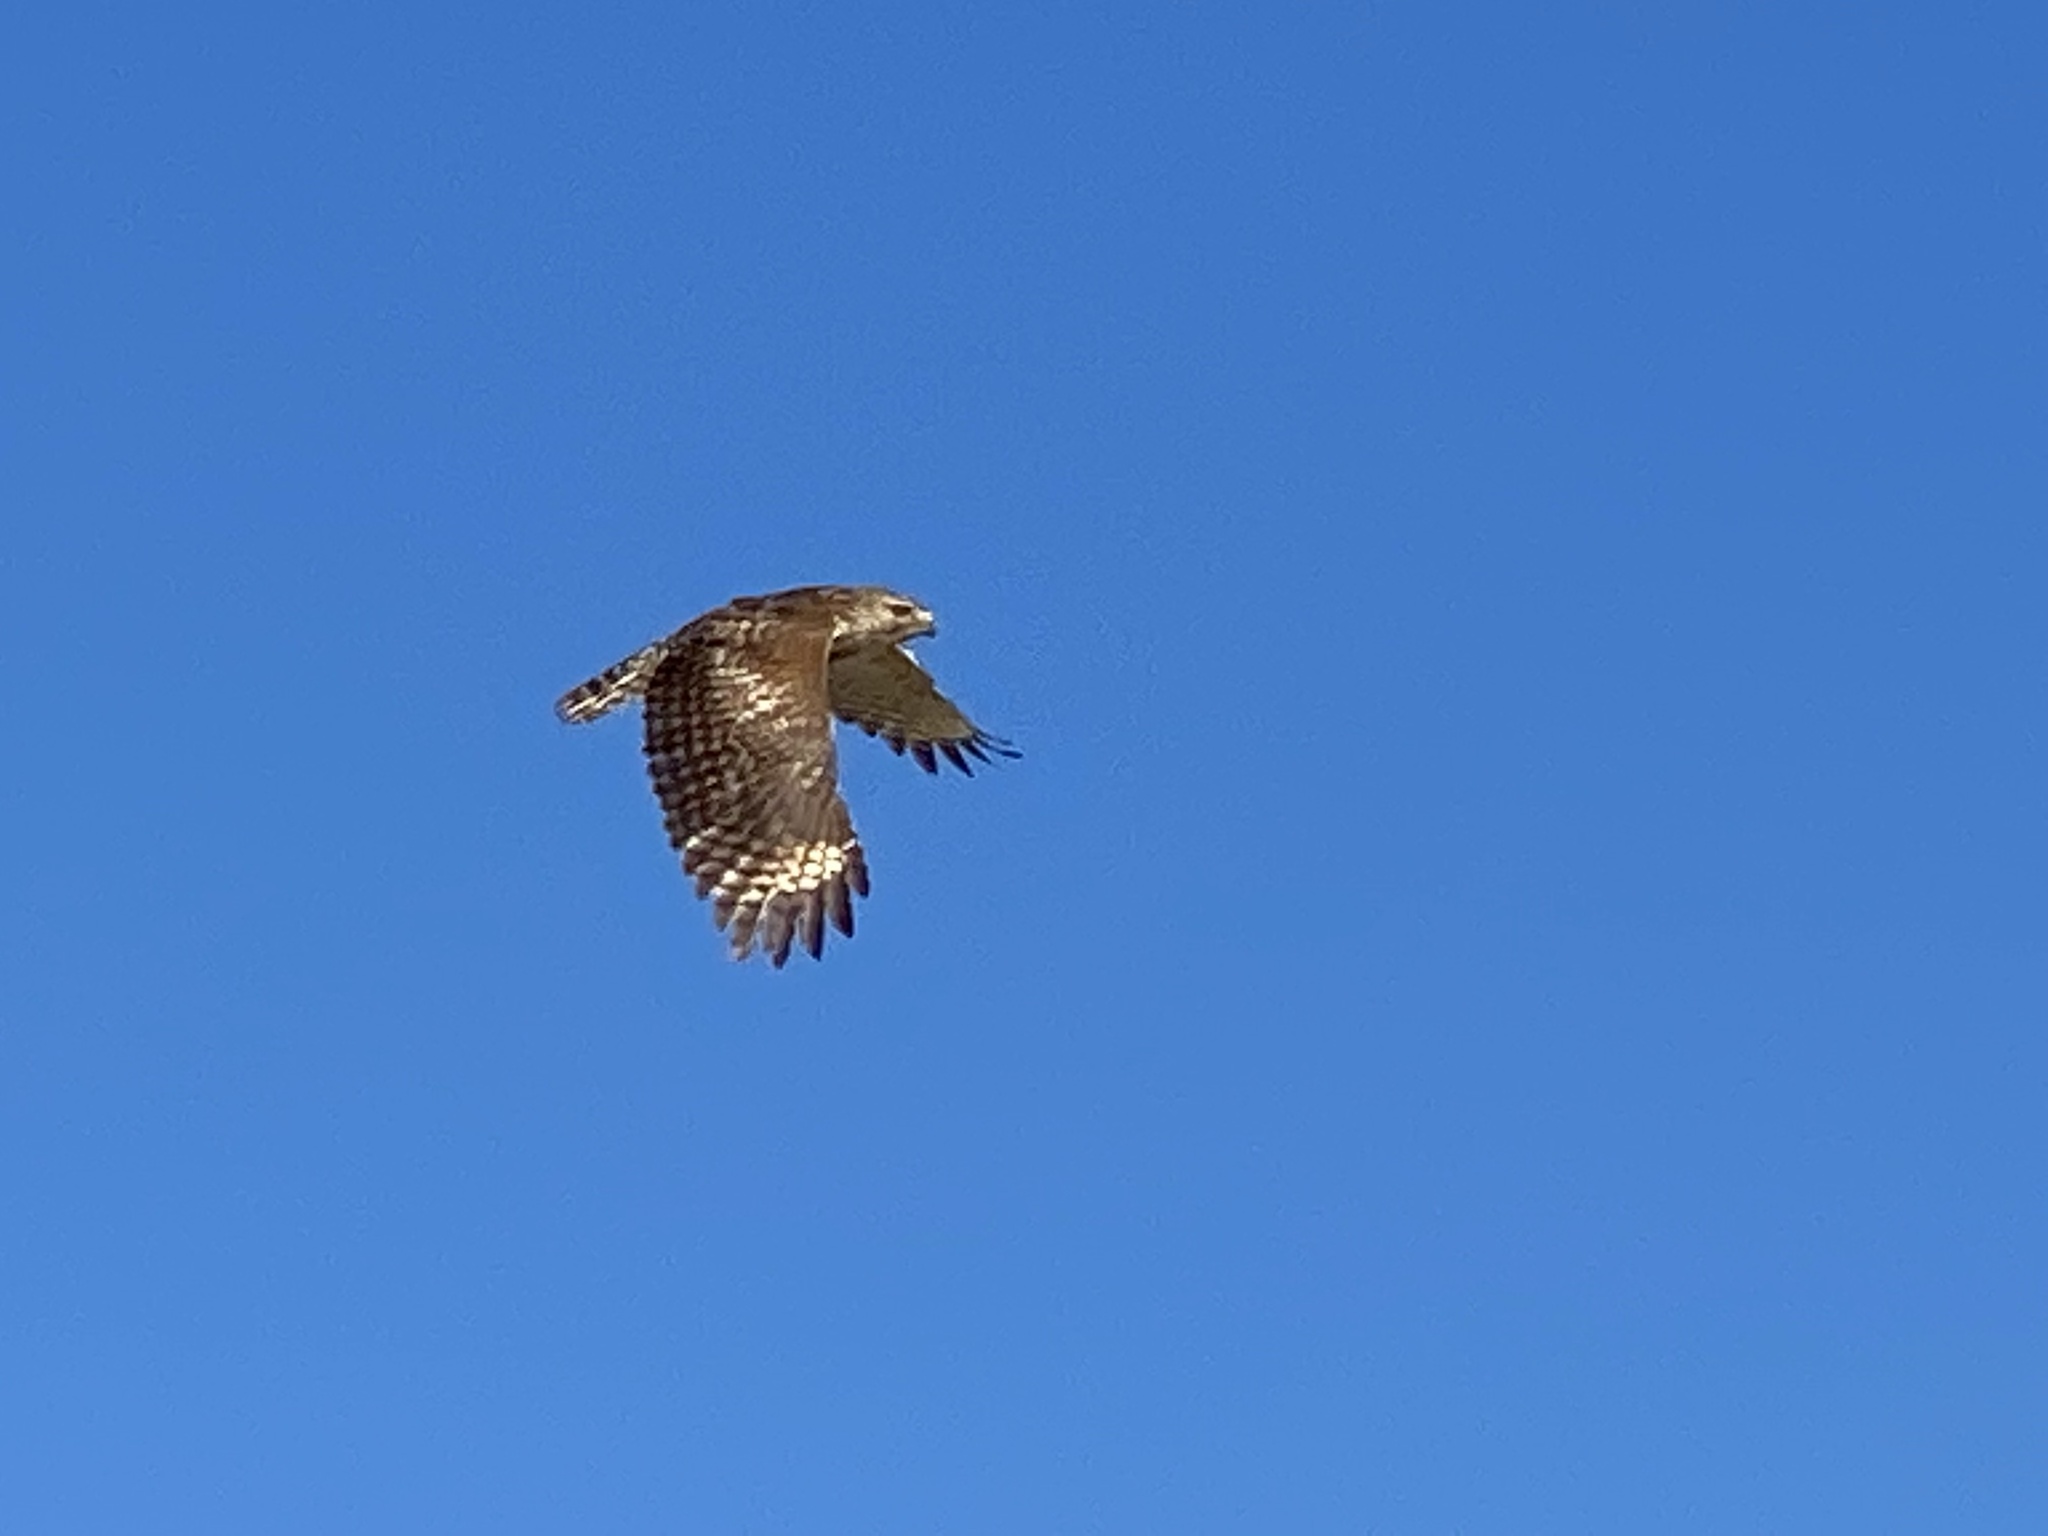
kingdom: Animalia
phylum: Chordata
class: Aves
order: Accipitriformes
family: Accipitridae
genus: Buteo
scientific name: Buteo lineatus
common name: Red-shouldered hawk
